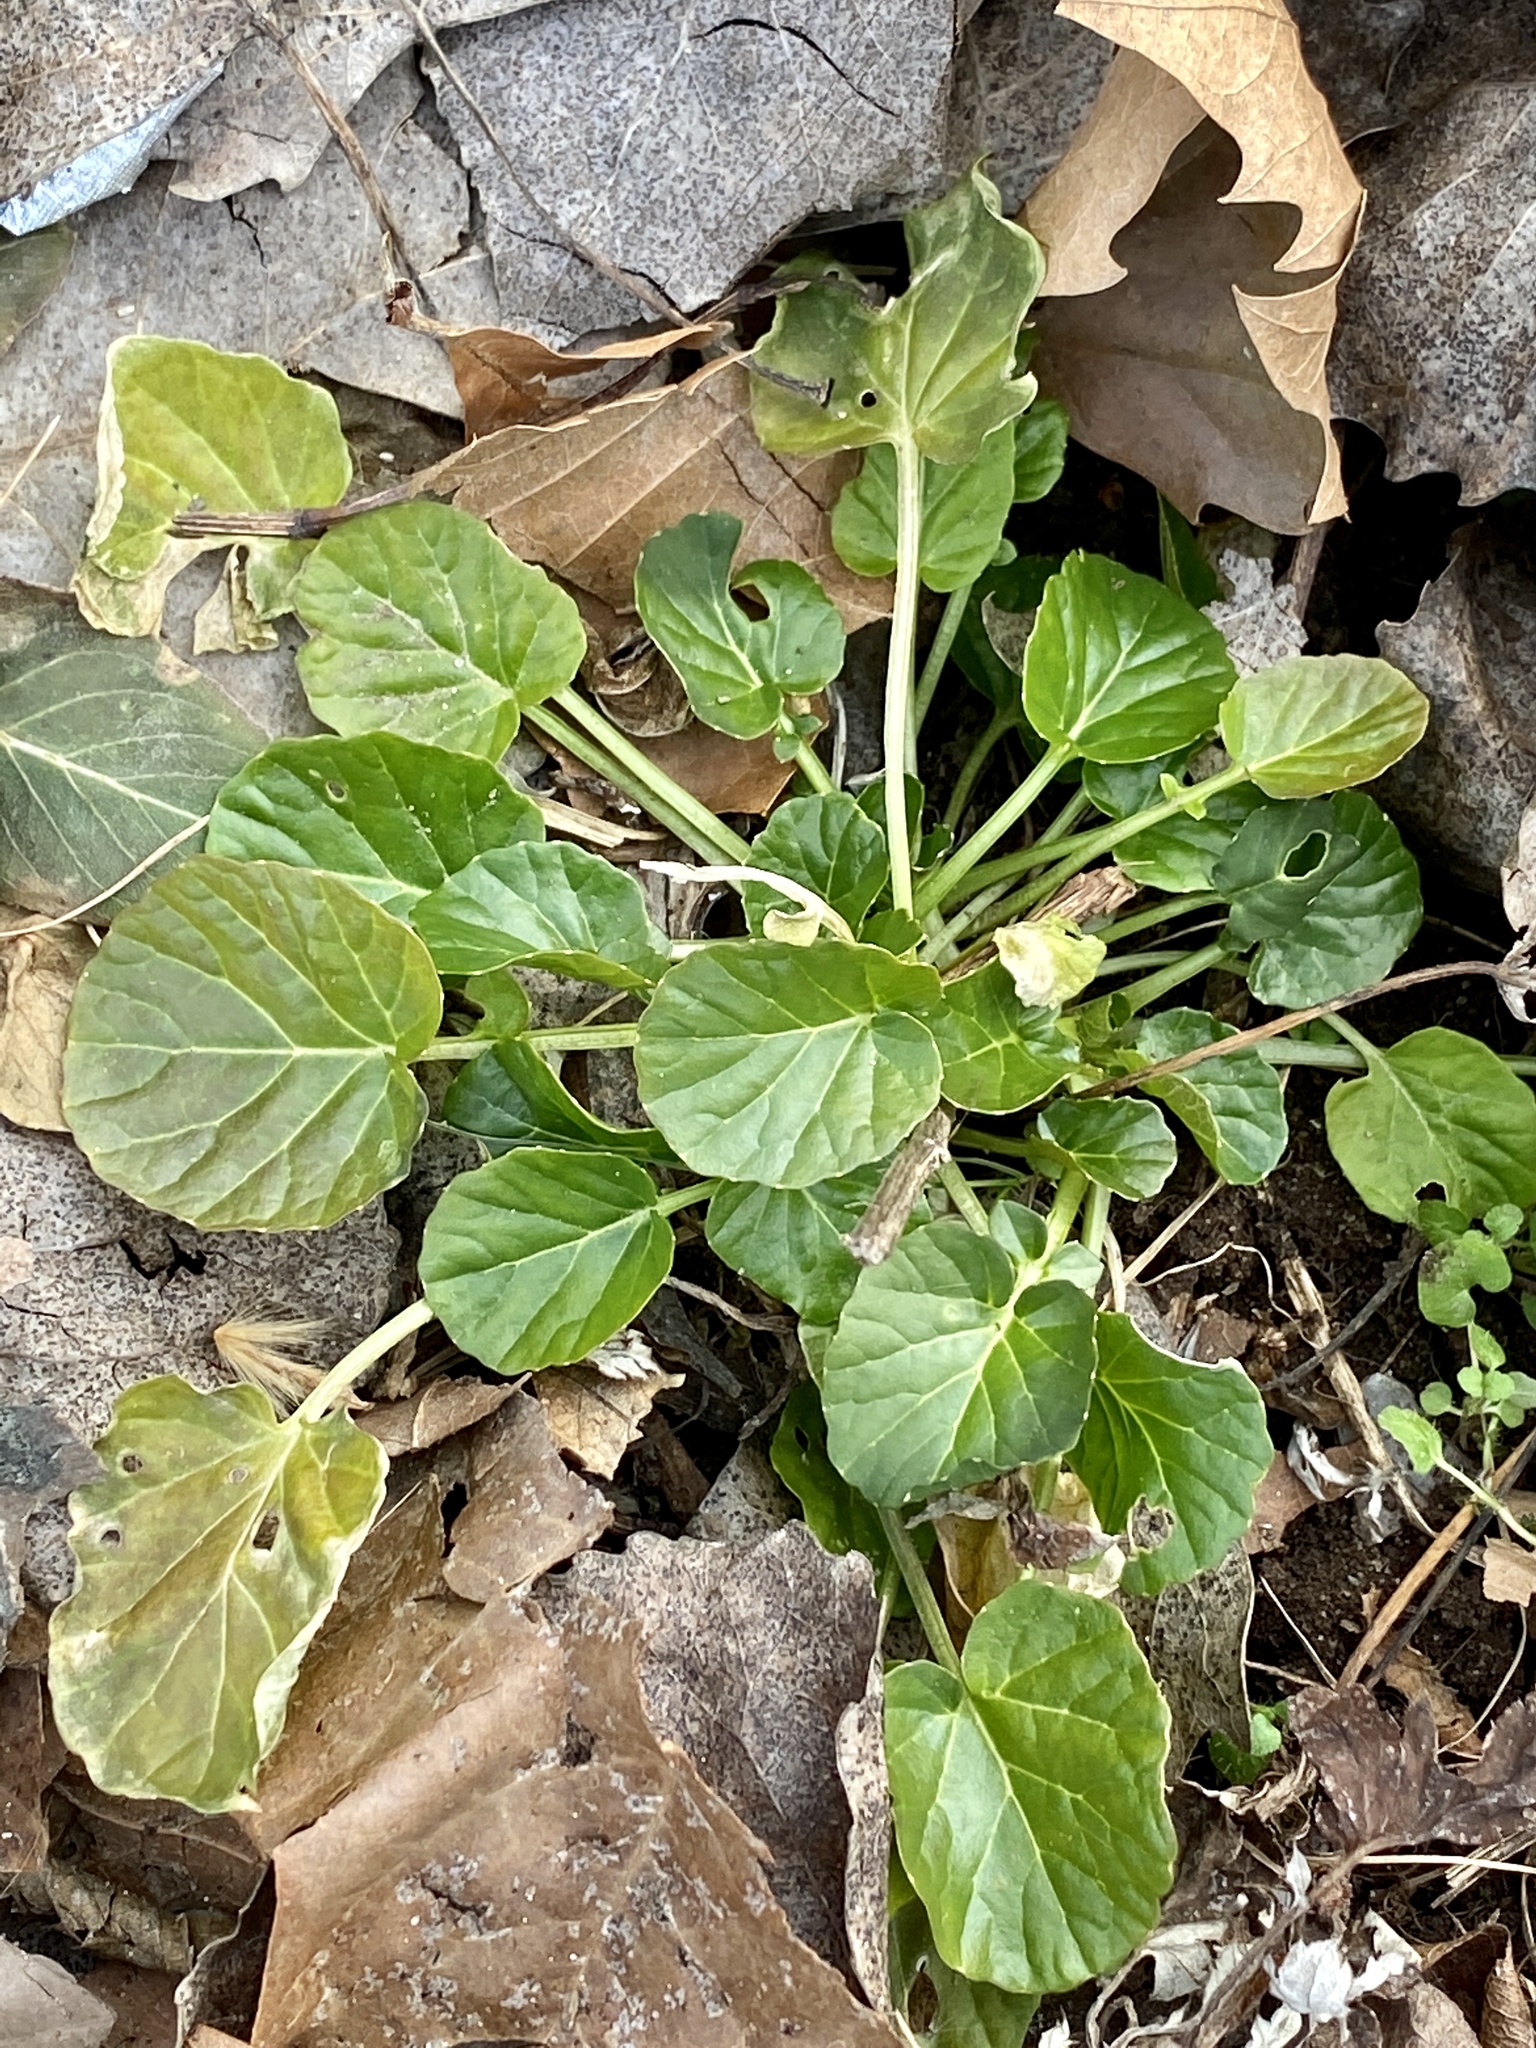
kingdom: Plantae
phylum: Tracheophyta
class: Magnoliopsida
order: Brassicales
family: Brassicaceae
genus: Barbarea
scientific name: Barbarea vulgaris
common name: Cressy-greens
